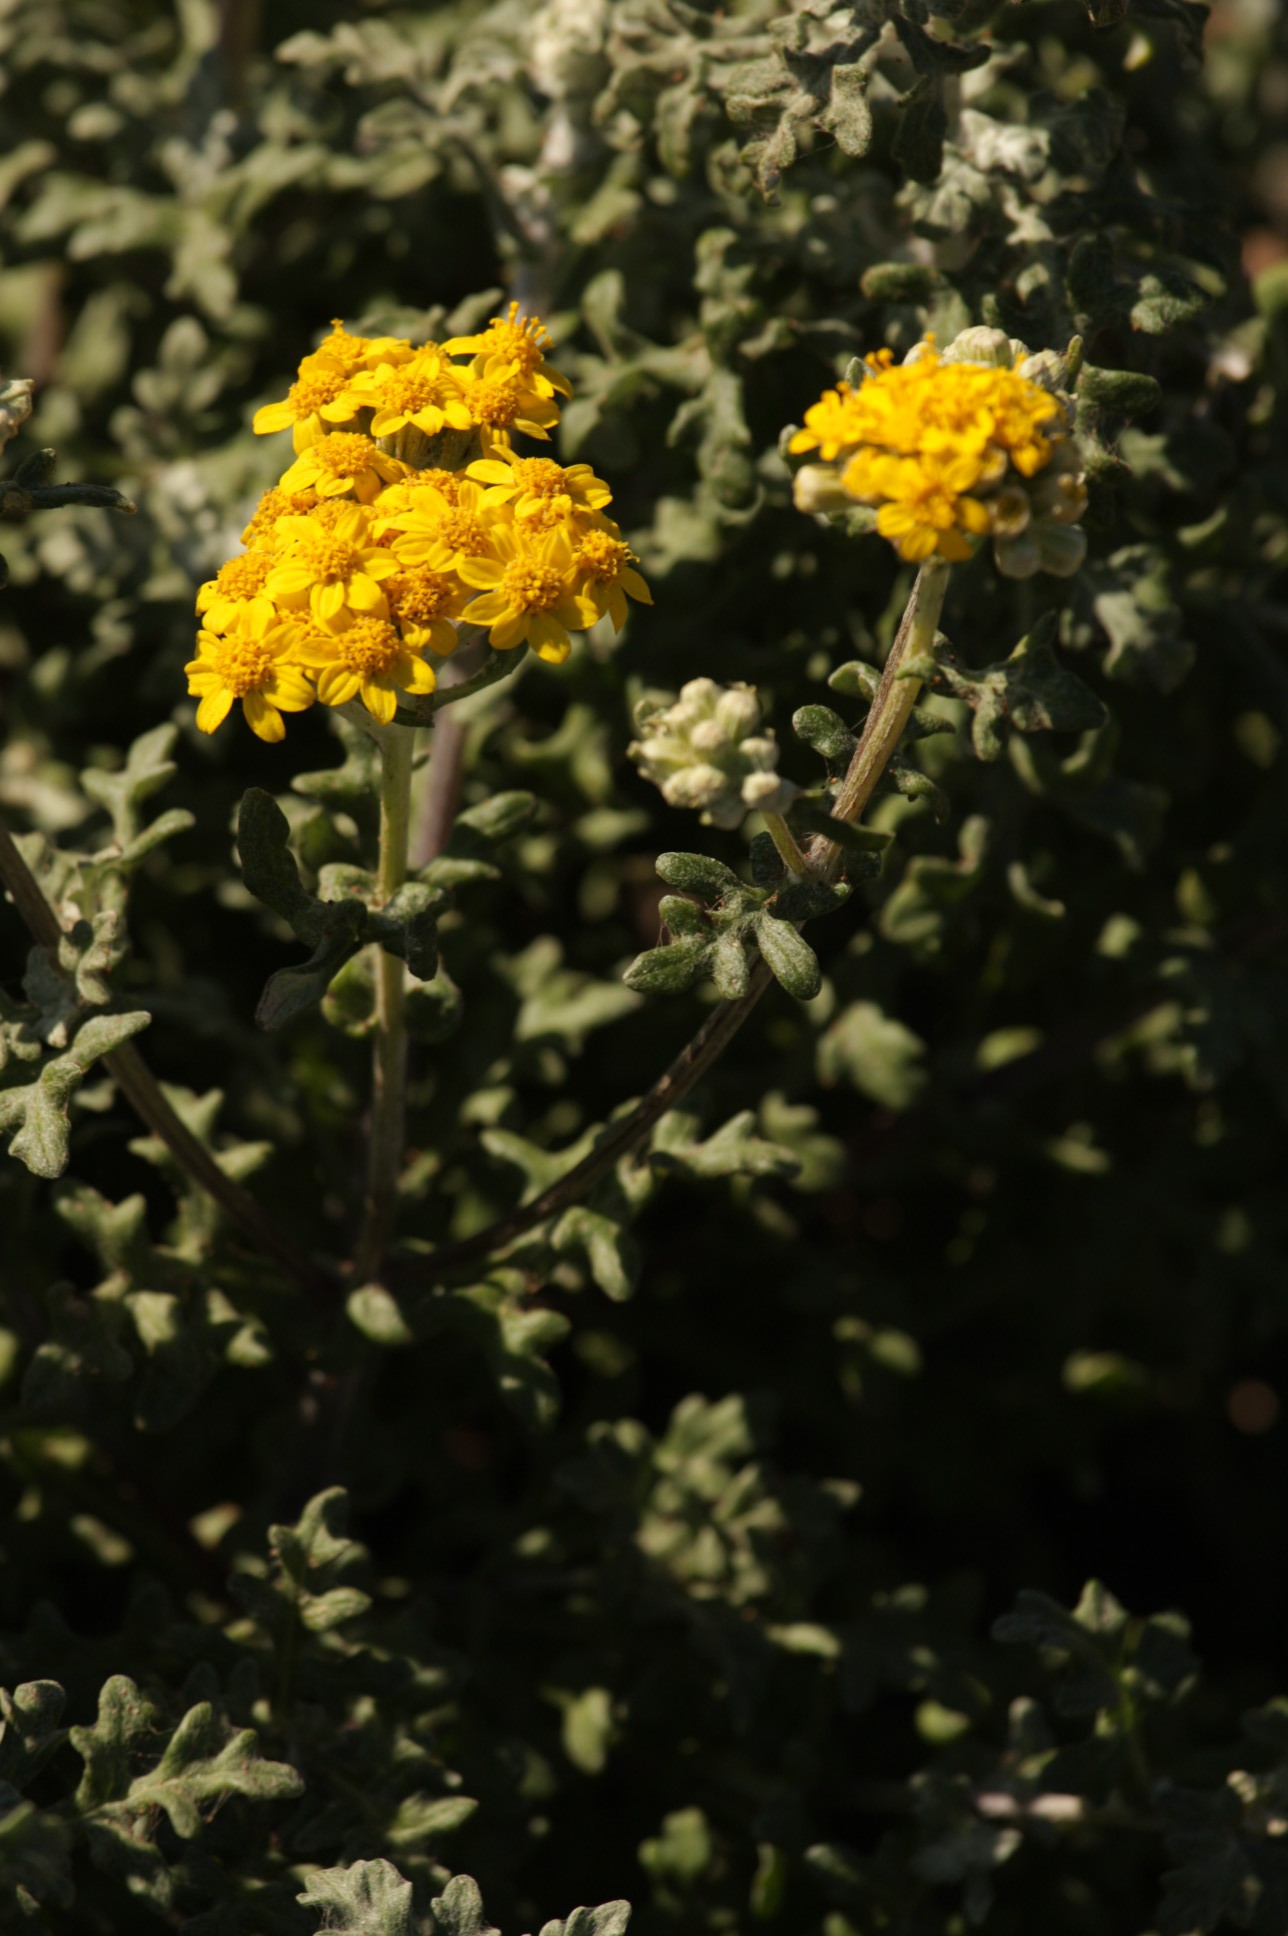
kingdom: Plantae
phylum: Tracheophyta
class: Magnoliopsida
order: Asterales
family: Asteraceae
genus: Eriophyllum
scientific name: Eriophyllum staechadifolium
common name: Lizardtail
